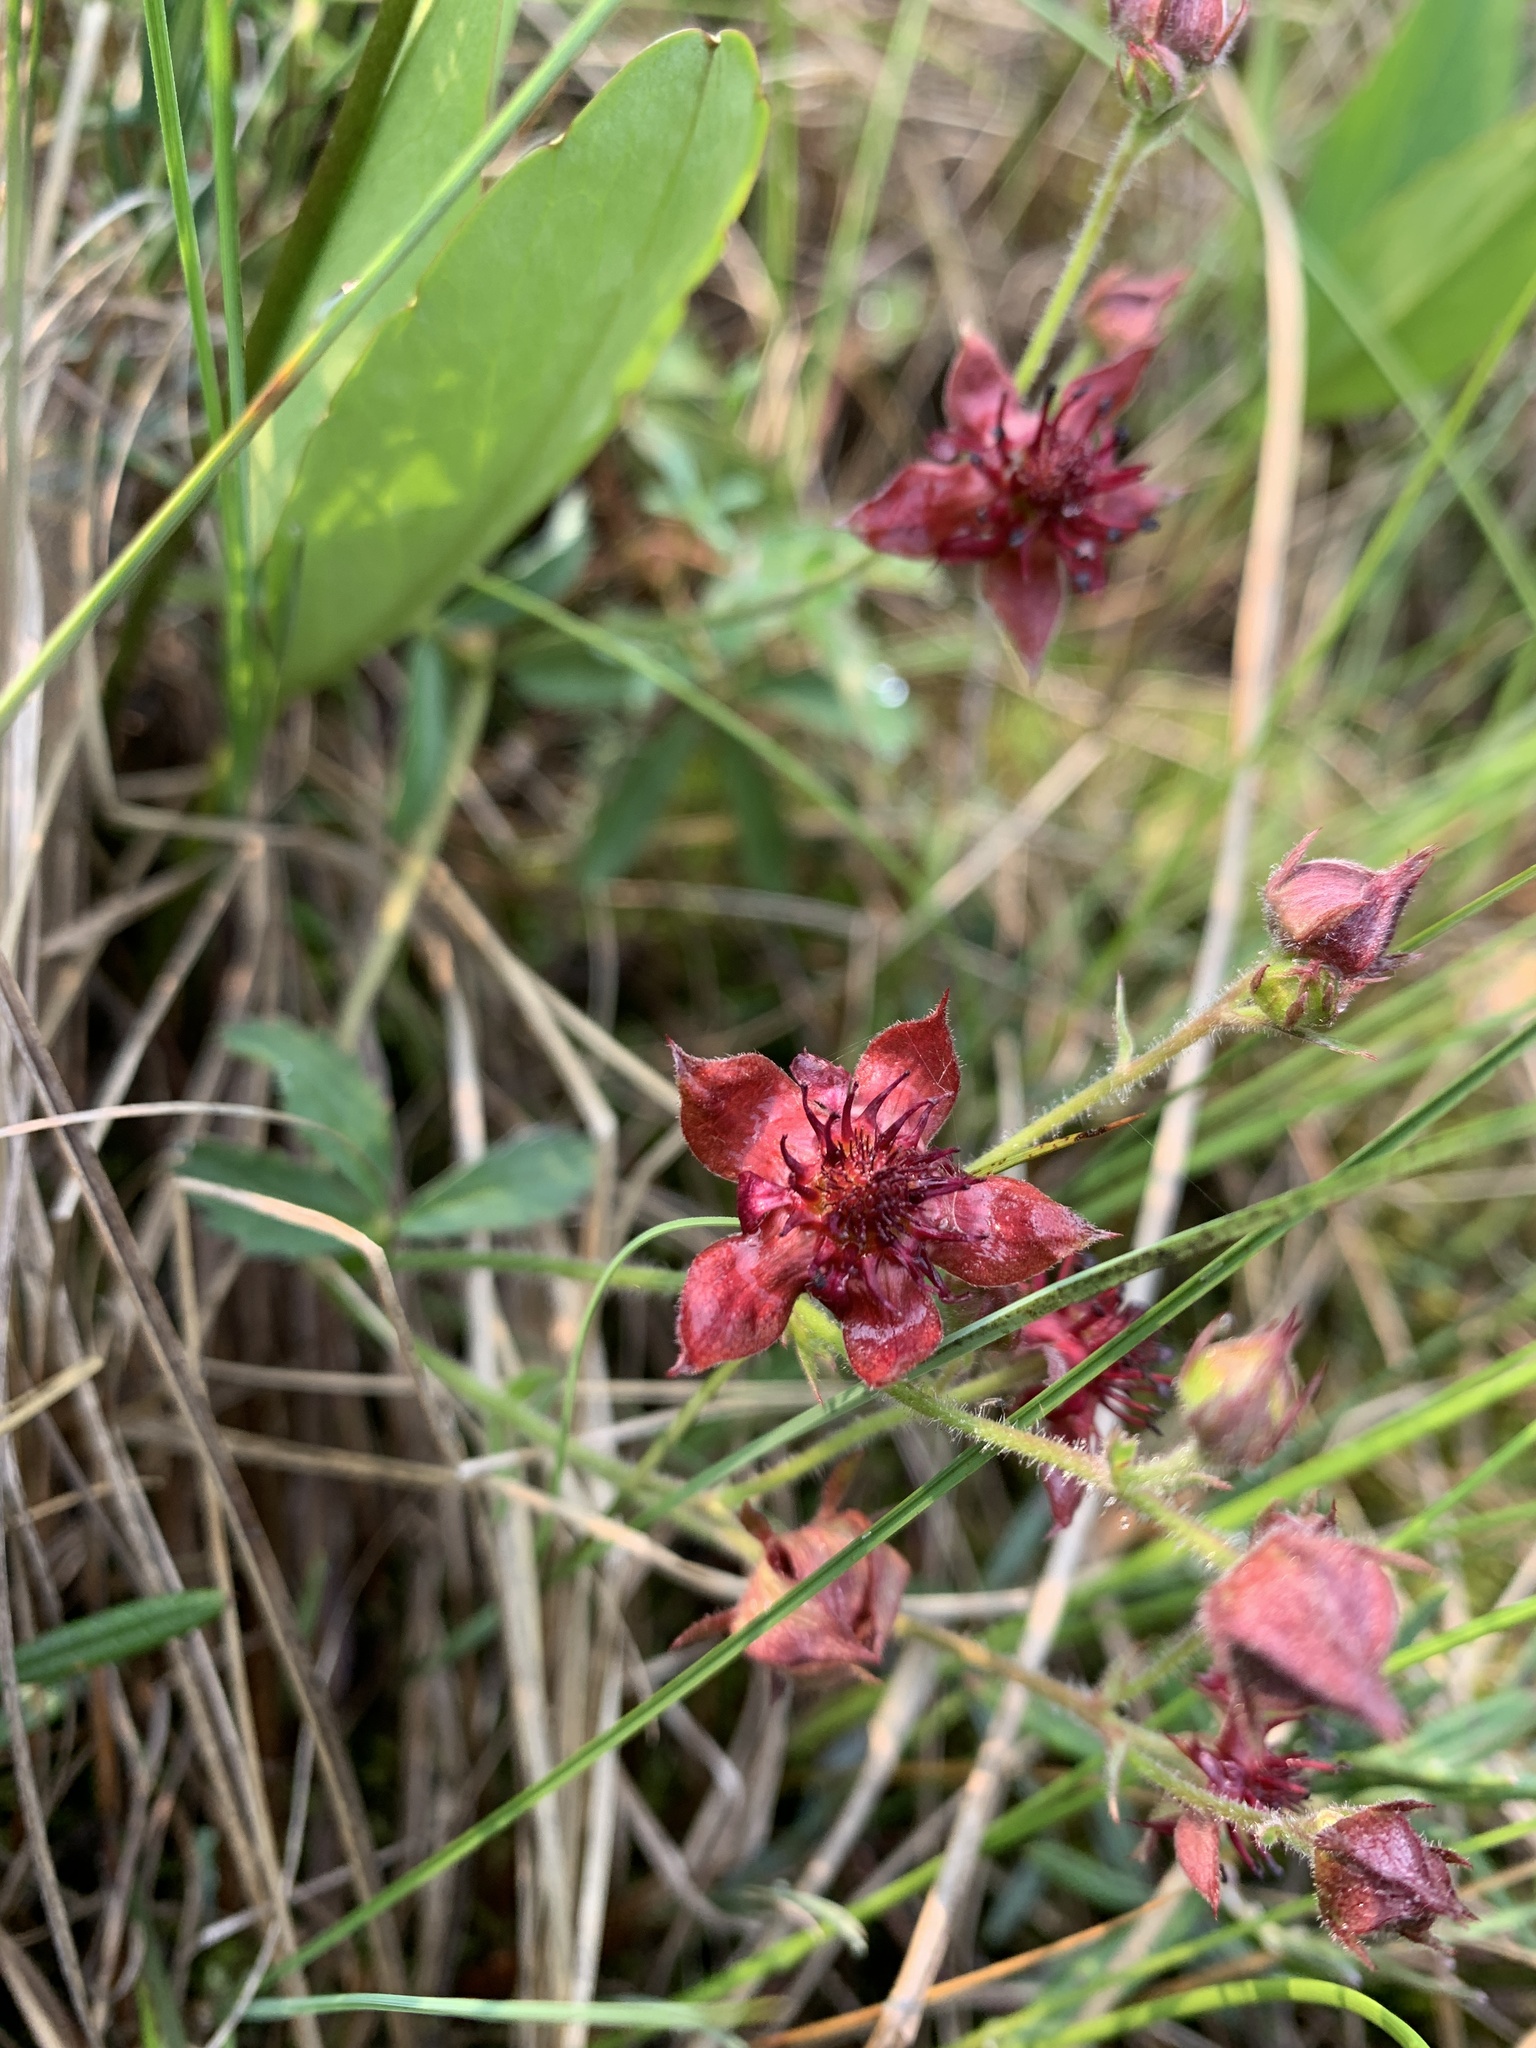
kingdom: Plantae
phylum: Tracheophyta
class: Magnoliopsida
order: Rosales
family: Rosaceae
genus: Comarum
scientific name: Comarum palustre
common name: Marsh cinquefoil
